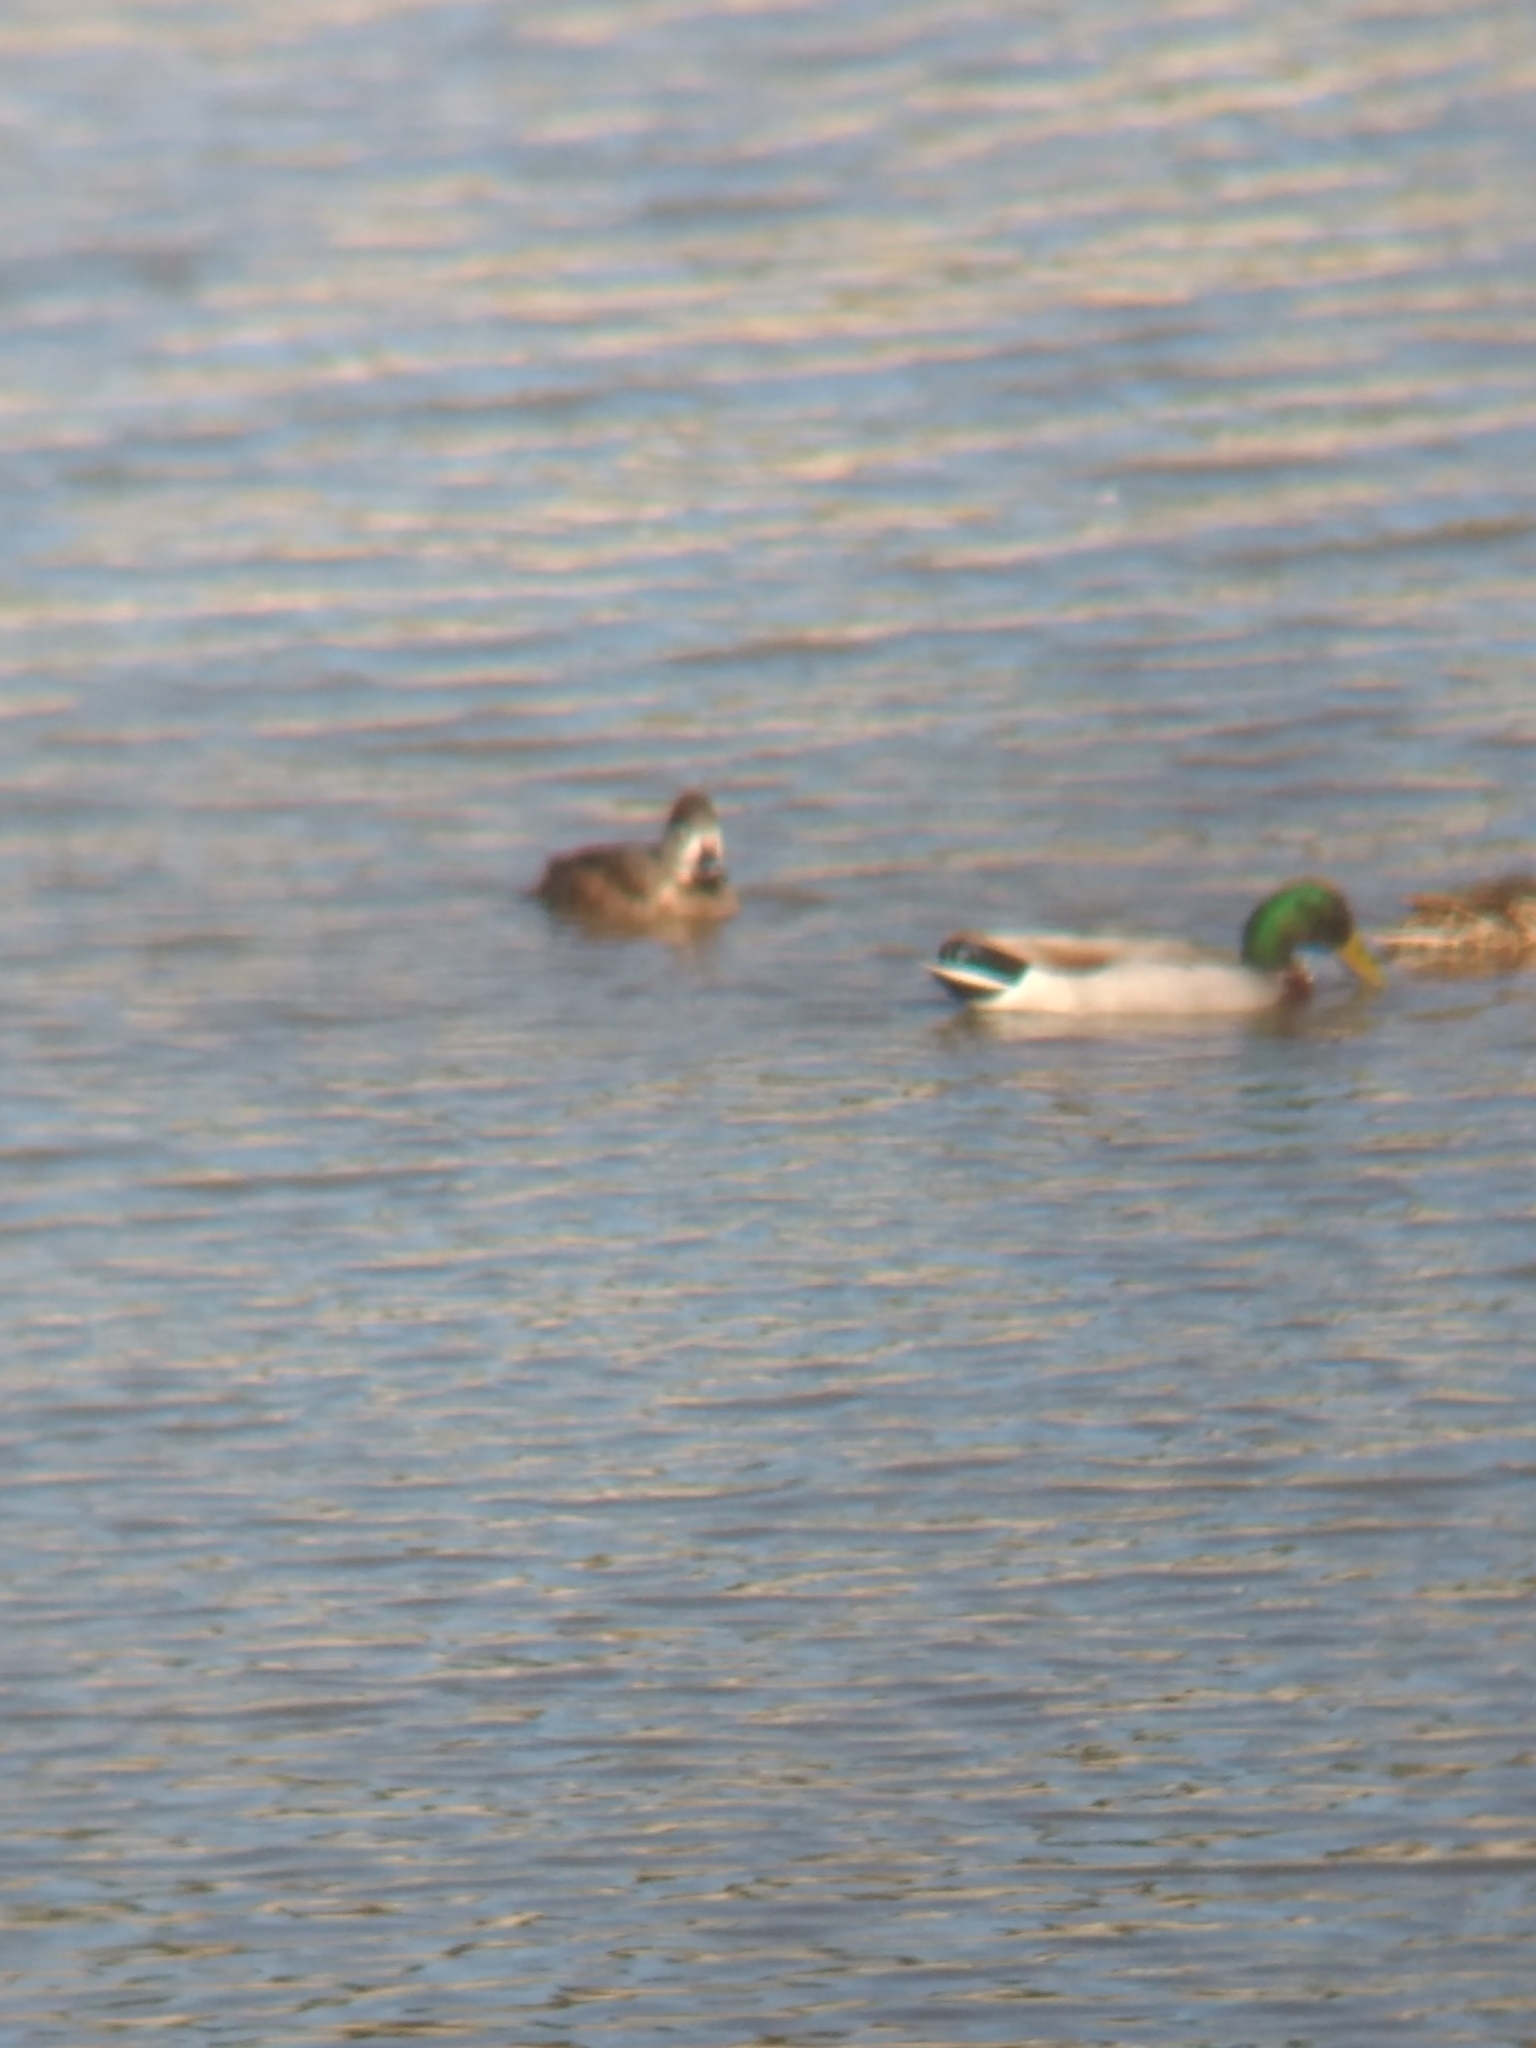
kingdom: Animalia
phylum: Chordata
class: Aves
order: Anseriformes
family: Anatidae
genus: Anas
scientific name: Anas platyrhynchos
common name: Mallard
